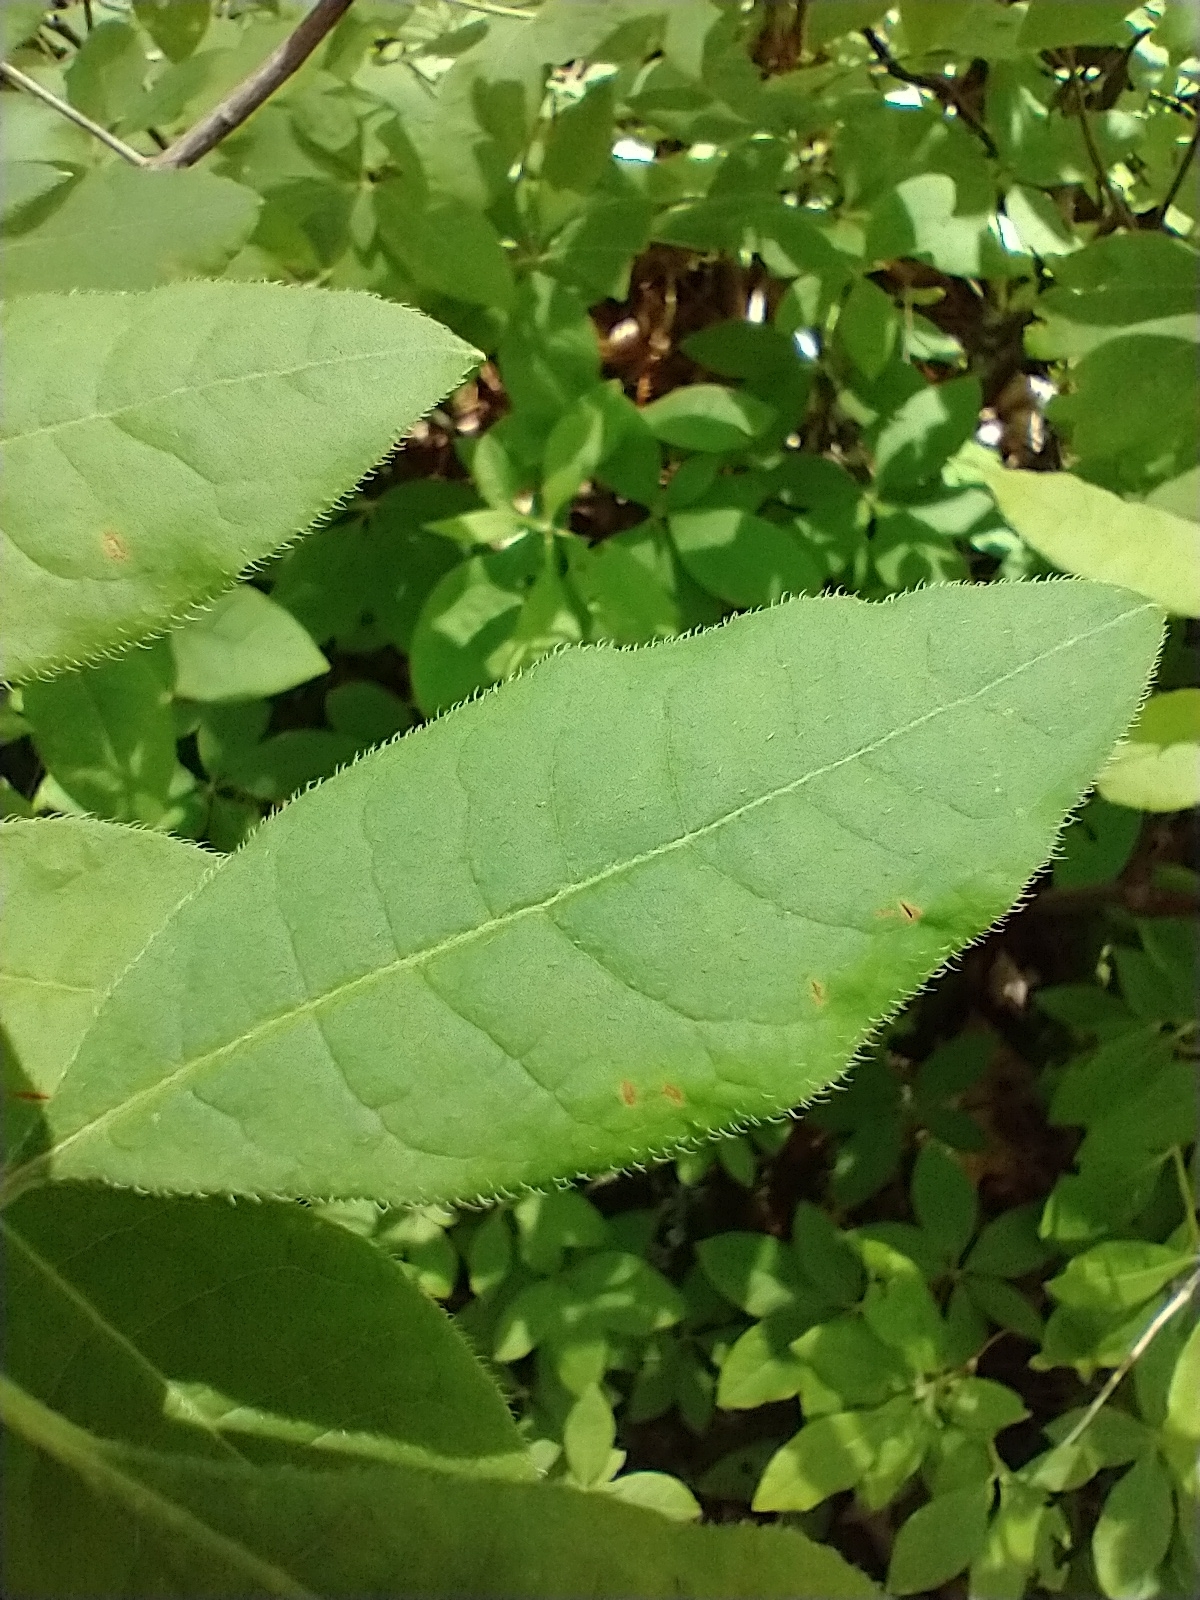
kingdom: Plantae
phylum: Tracheophyta
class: Magnoliopsida
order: Ericales
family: Ericaceae
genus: Rhododendron
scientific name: Rhododendron roseum
